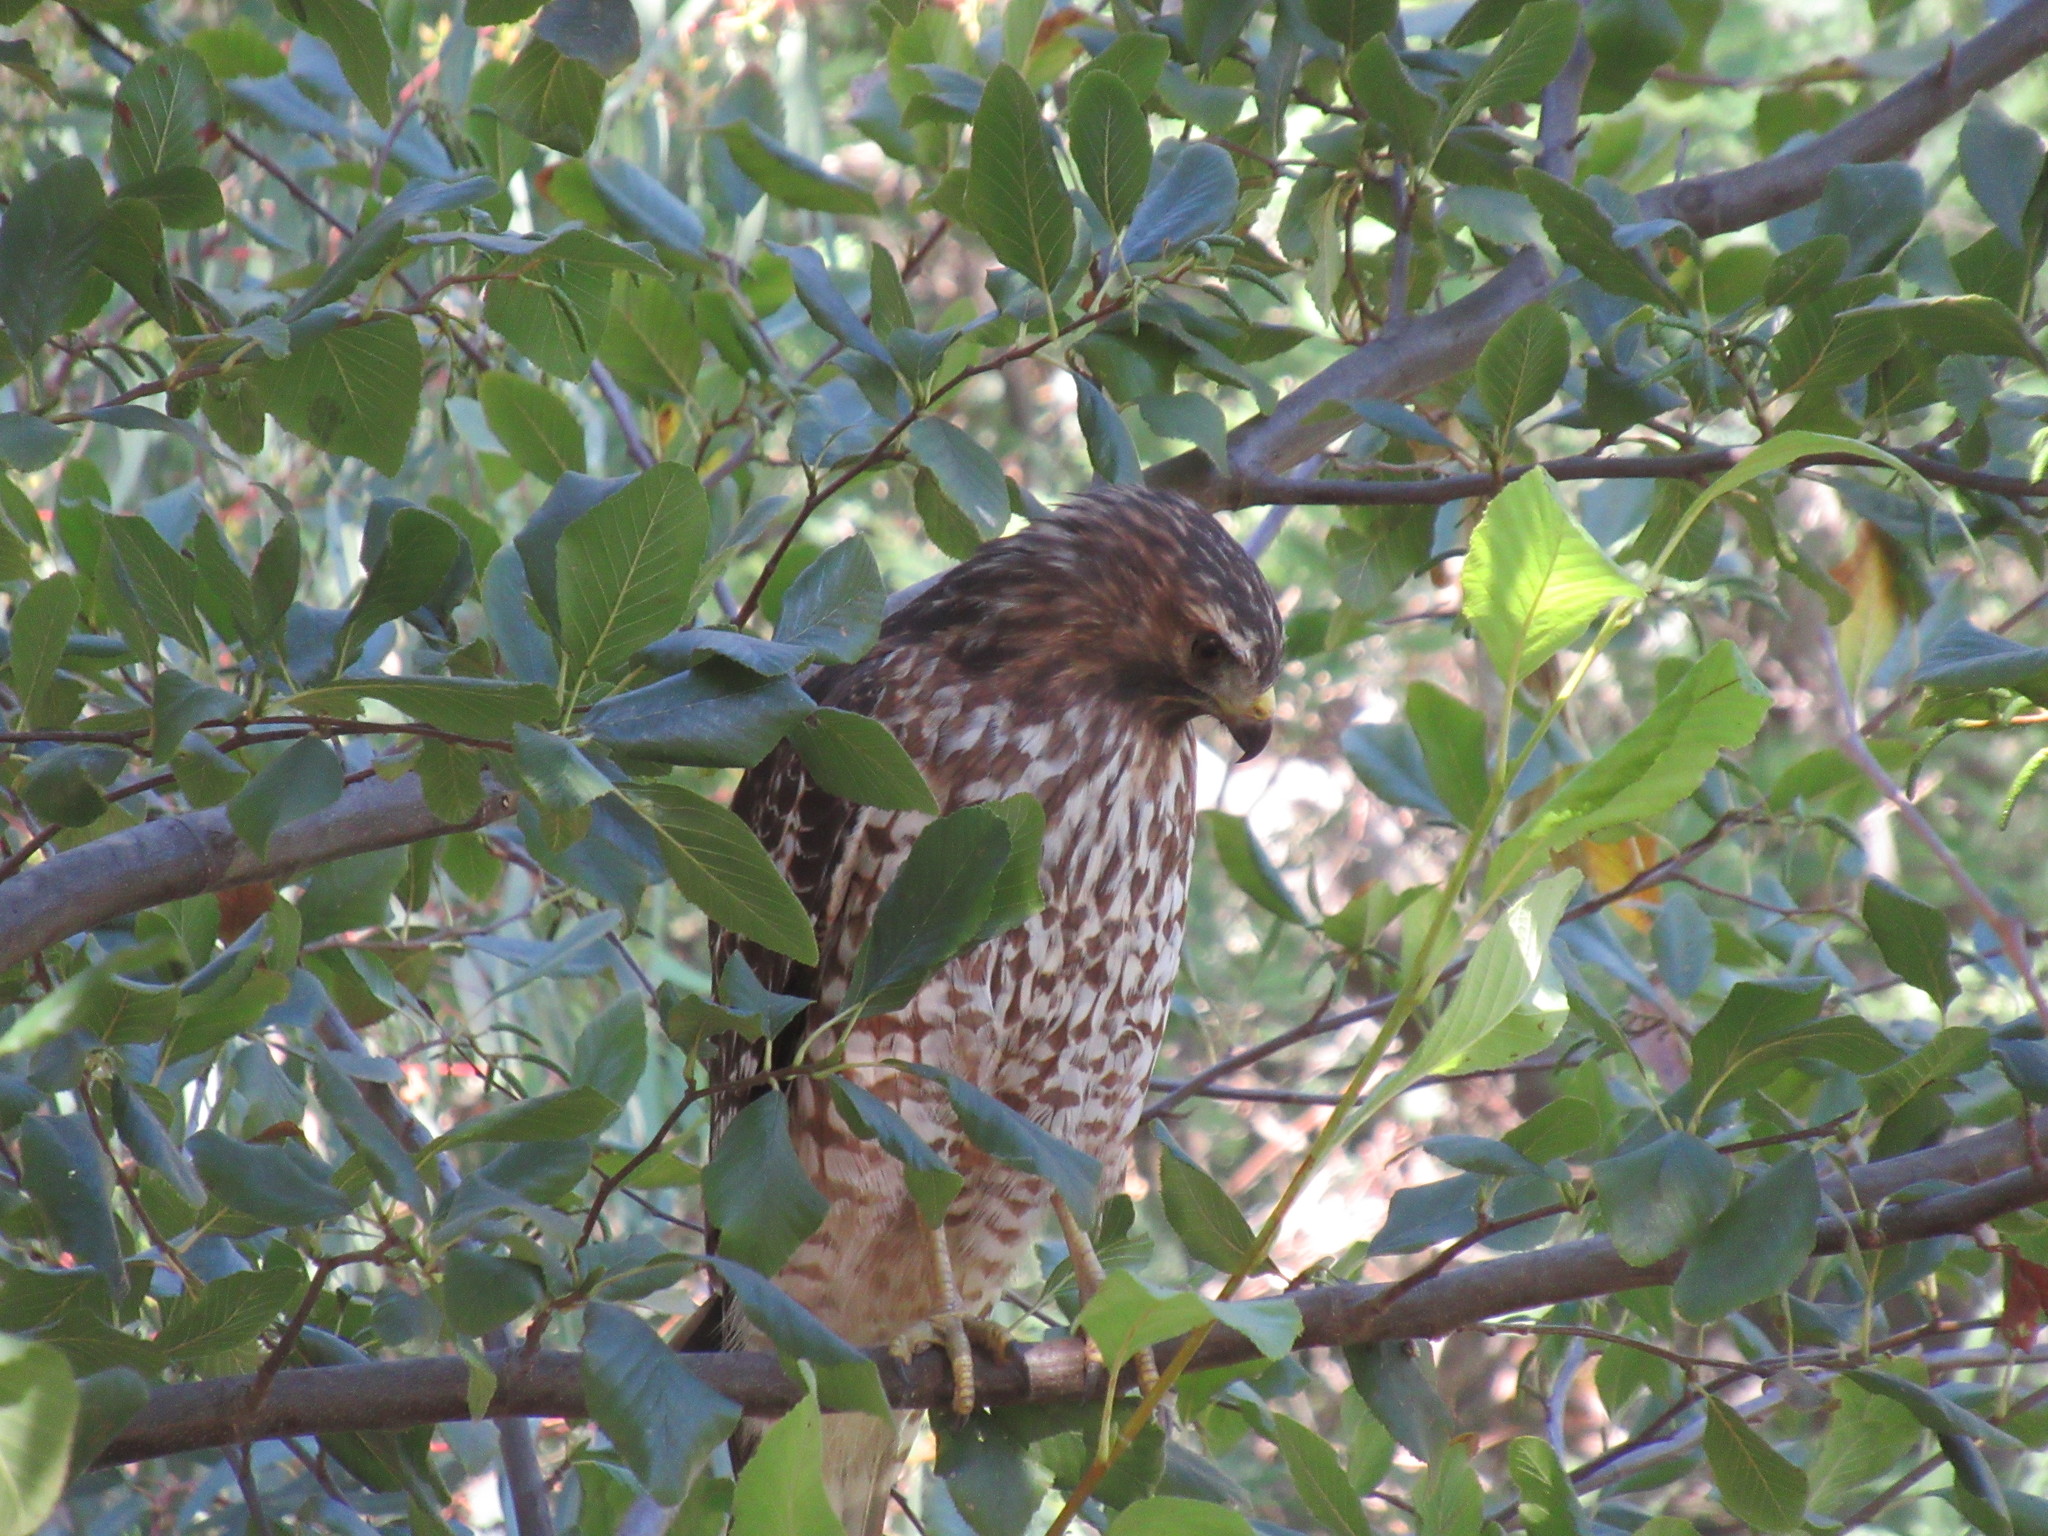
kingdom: Animalia
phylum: Chordata
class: Aves
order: Accipitriformes
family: Accipitridae
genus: Buteo
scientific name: Buteo lineatus
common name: Red-shouldered hawk
